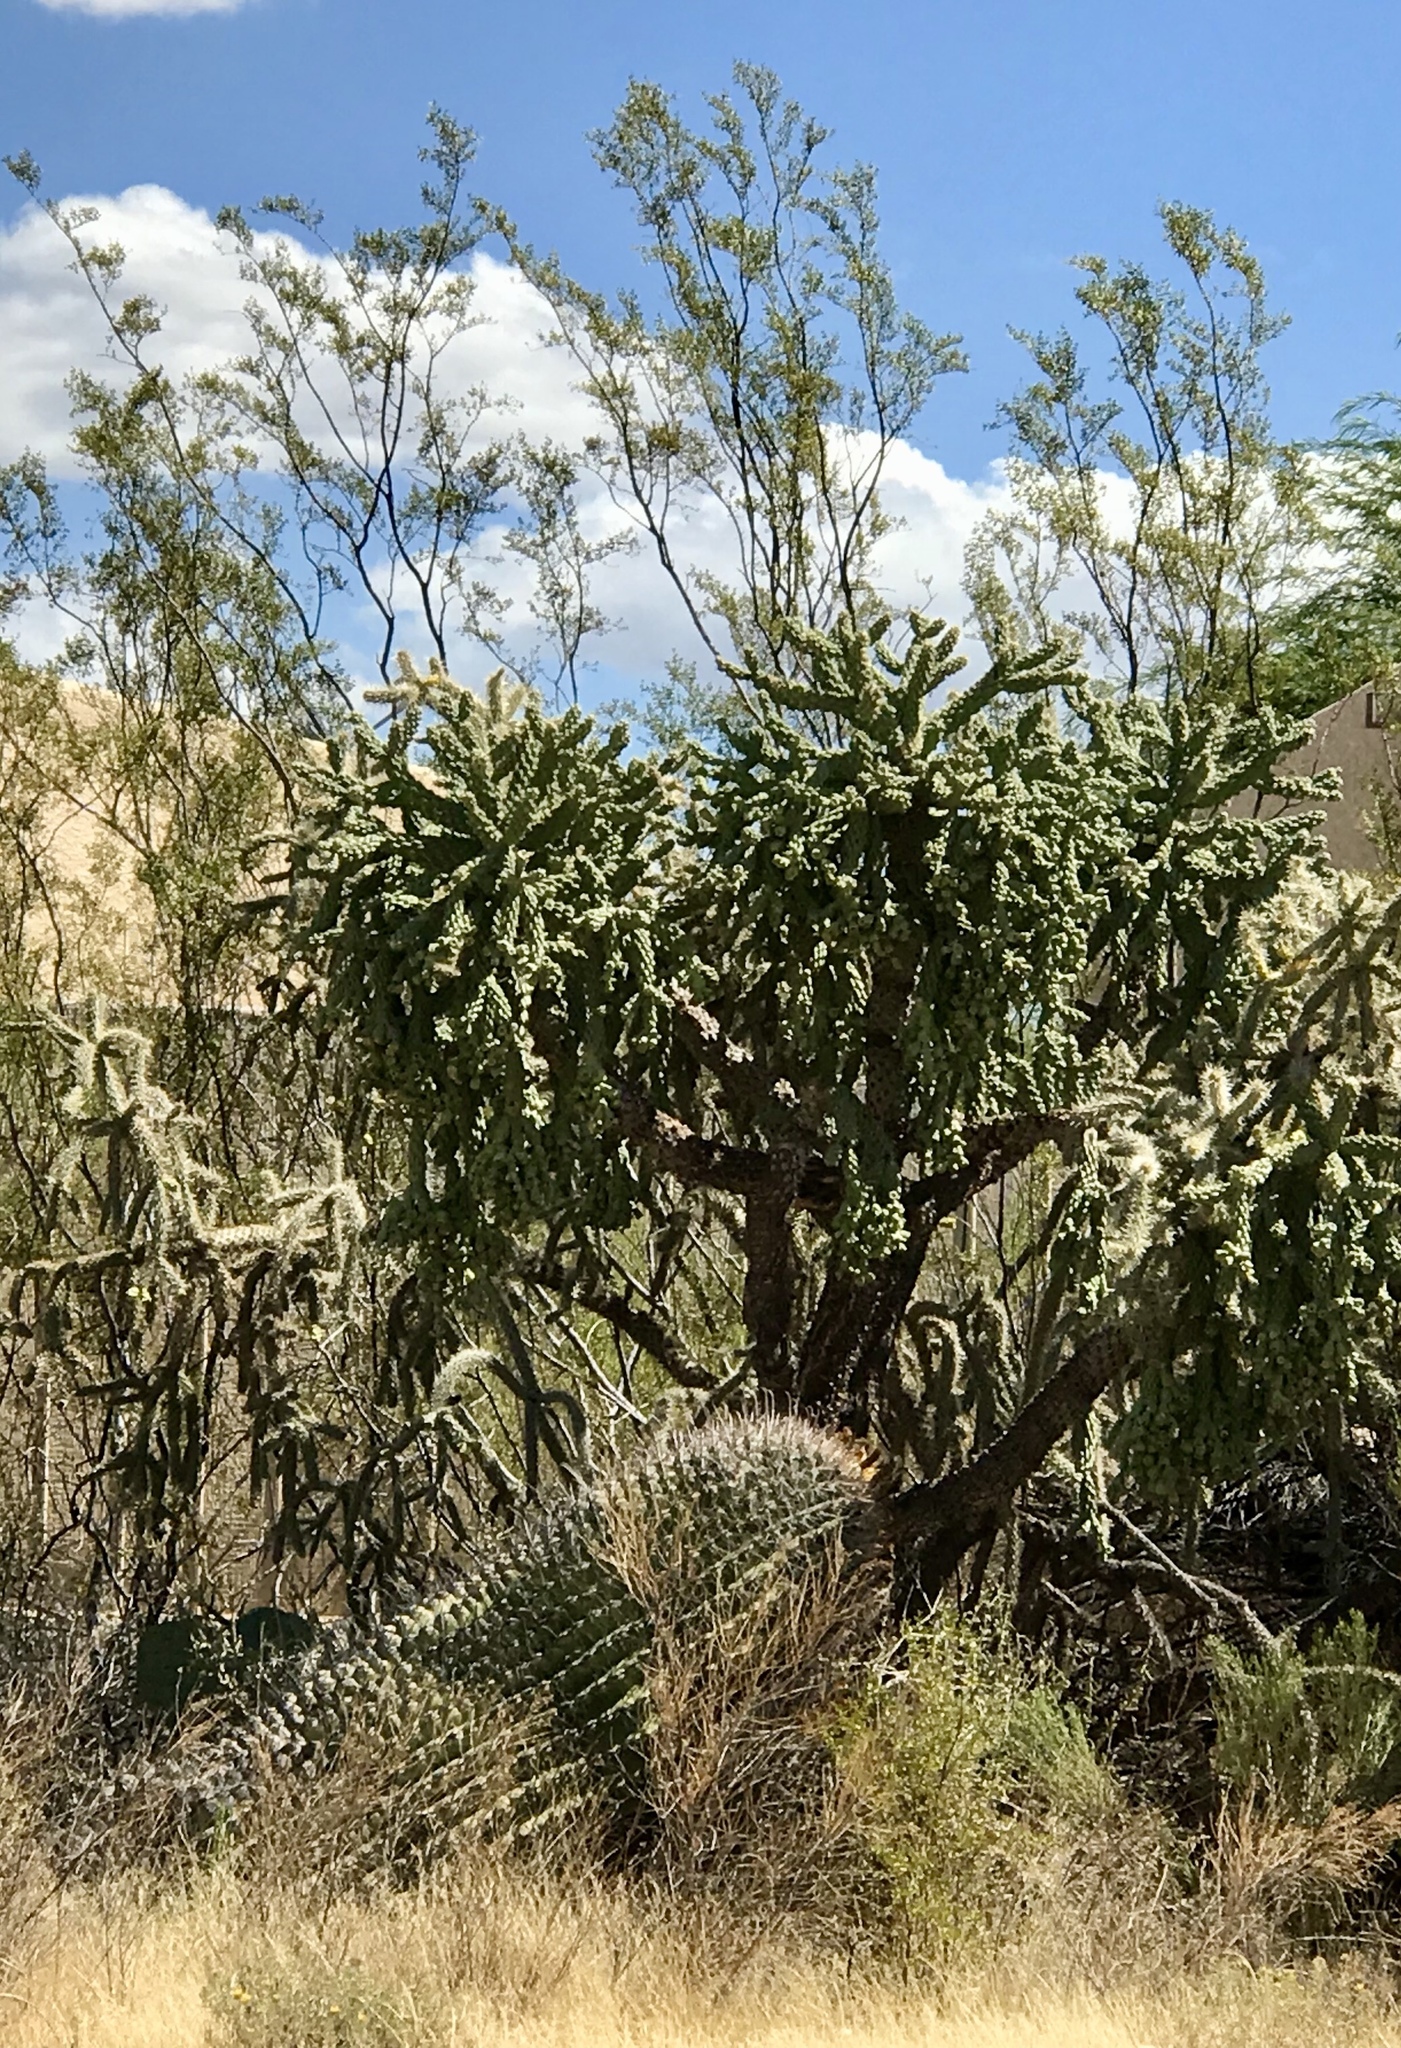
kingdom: Plantae
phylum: Tracheophyta
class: Magnoliopsida
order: Caryophyllales
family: Cactaceae
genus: Cylindropuntia
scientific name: Cylindropuntia fulgida
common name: Jumping cholla
